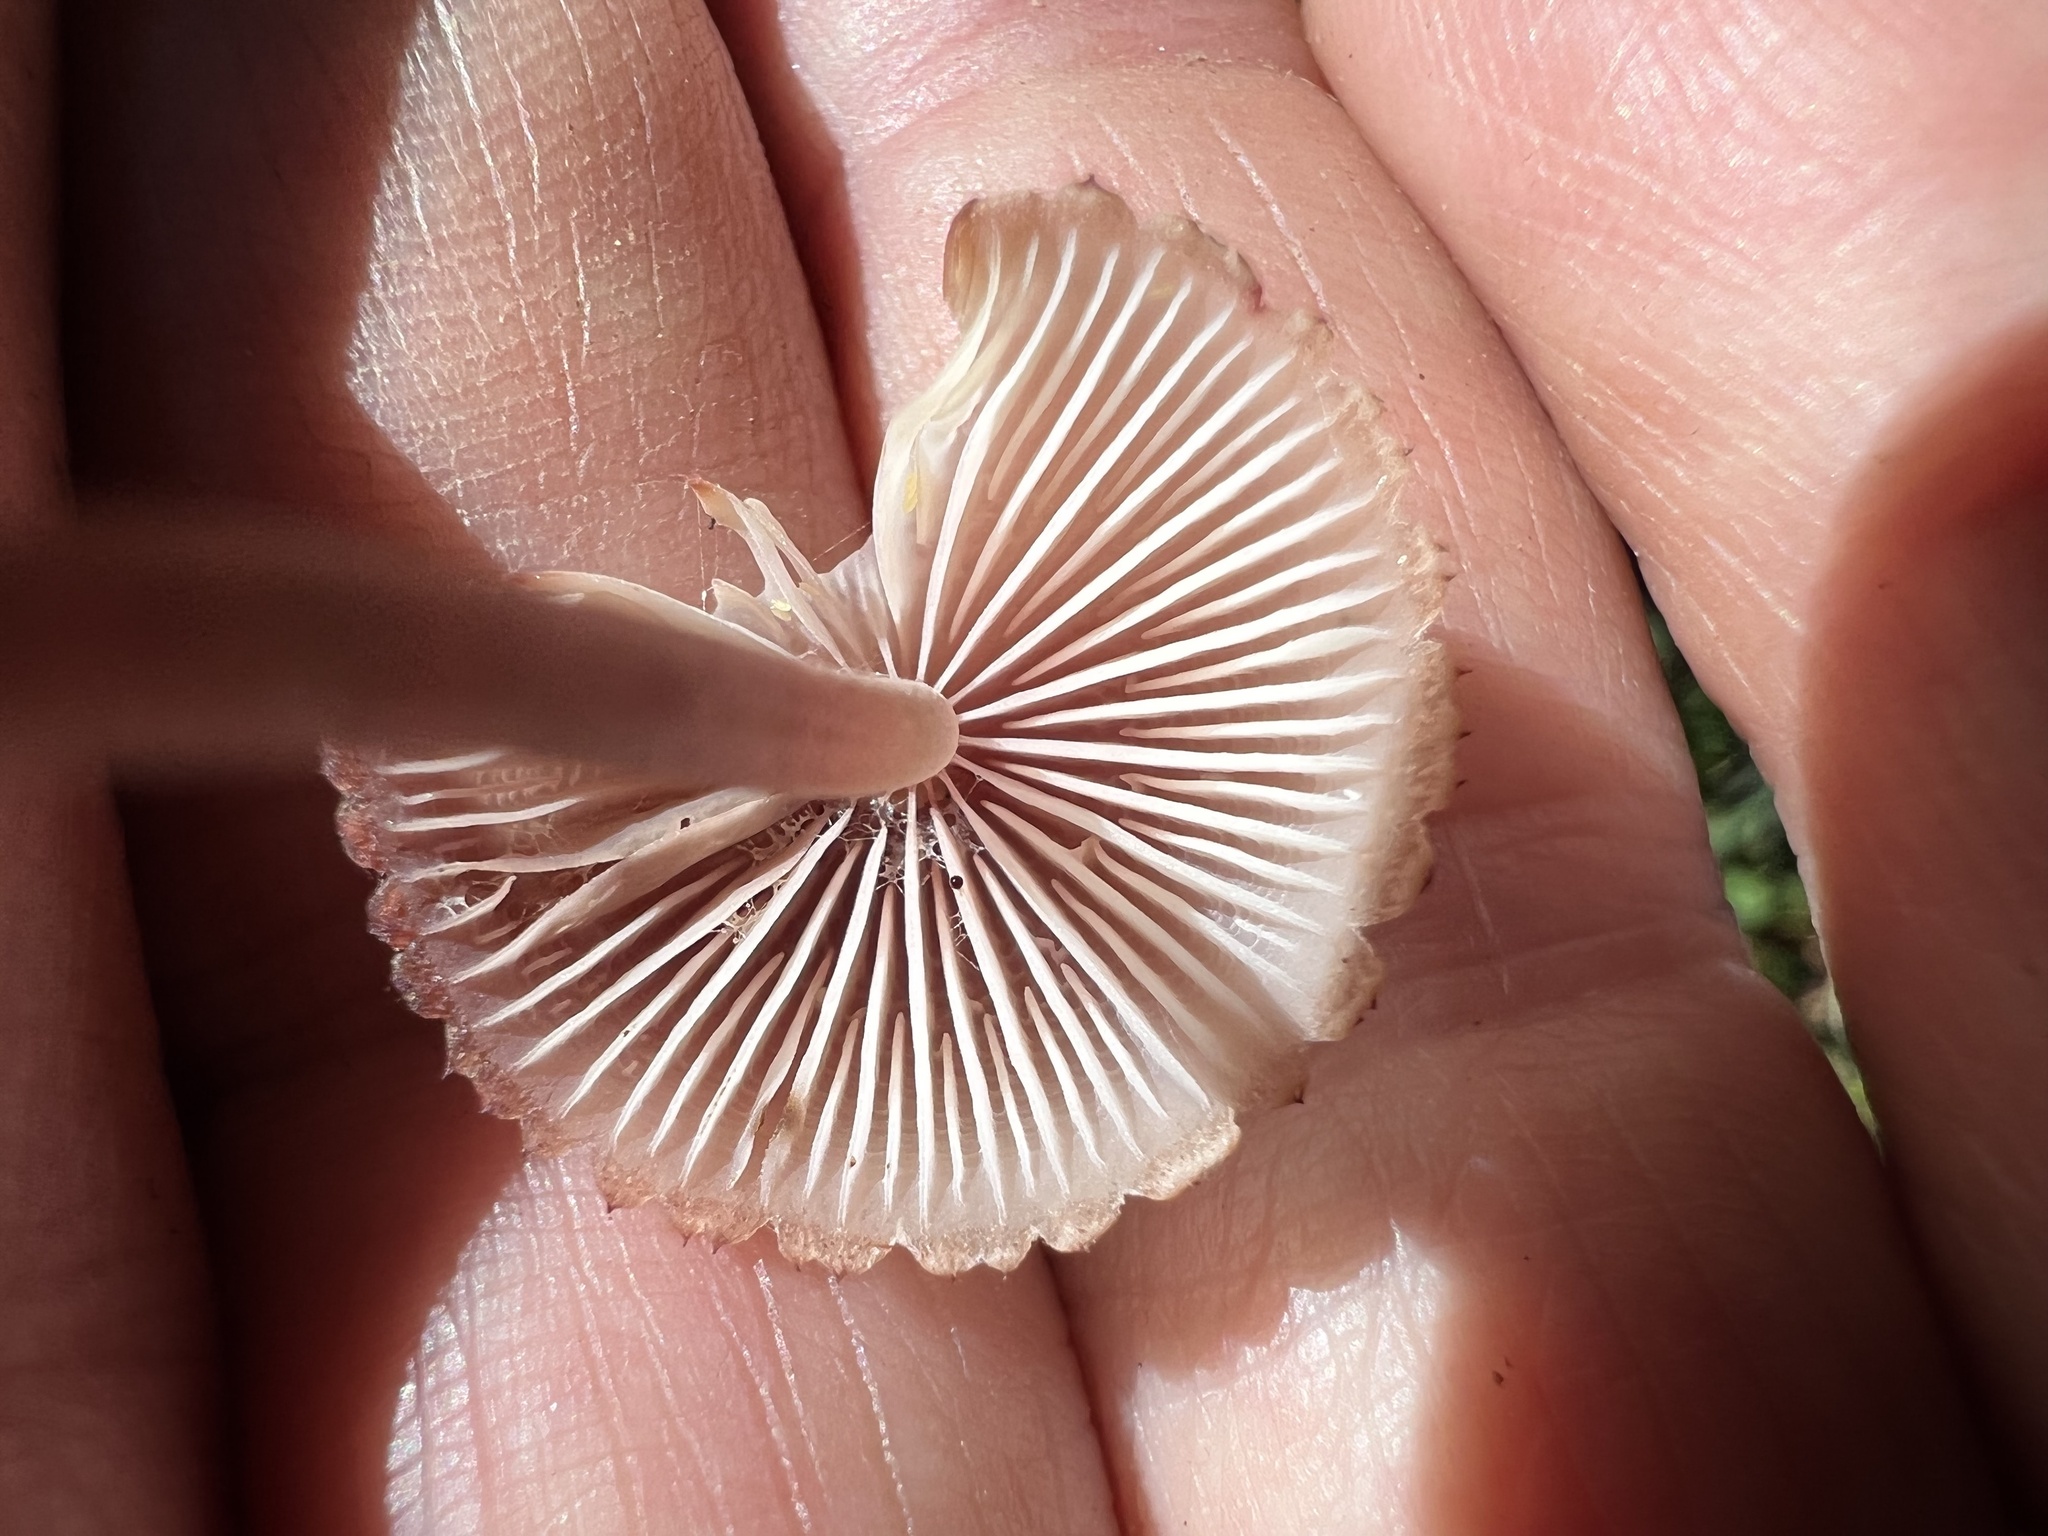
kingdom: Fungi
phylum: Basidiomycota
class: Agaricomycetes
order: Agaricales
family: Mycenaceae
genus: Mycena
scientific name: Mycena haematopus
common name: Burgundydrop bonnet
